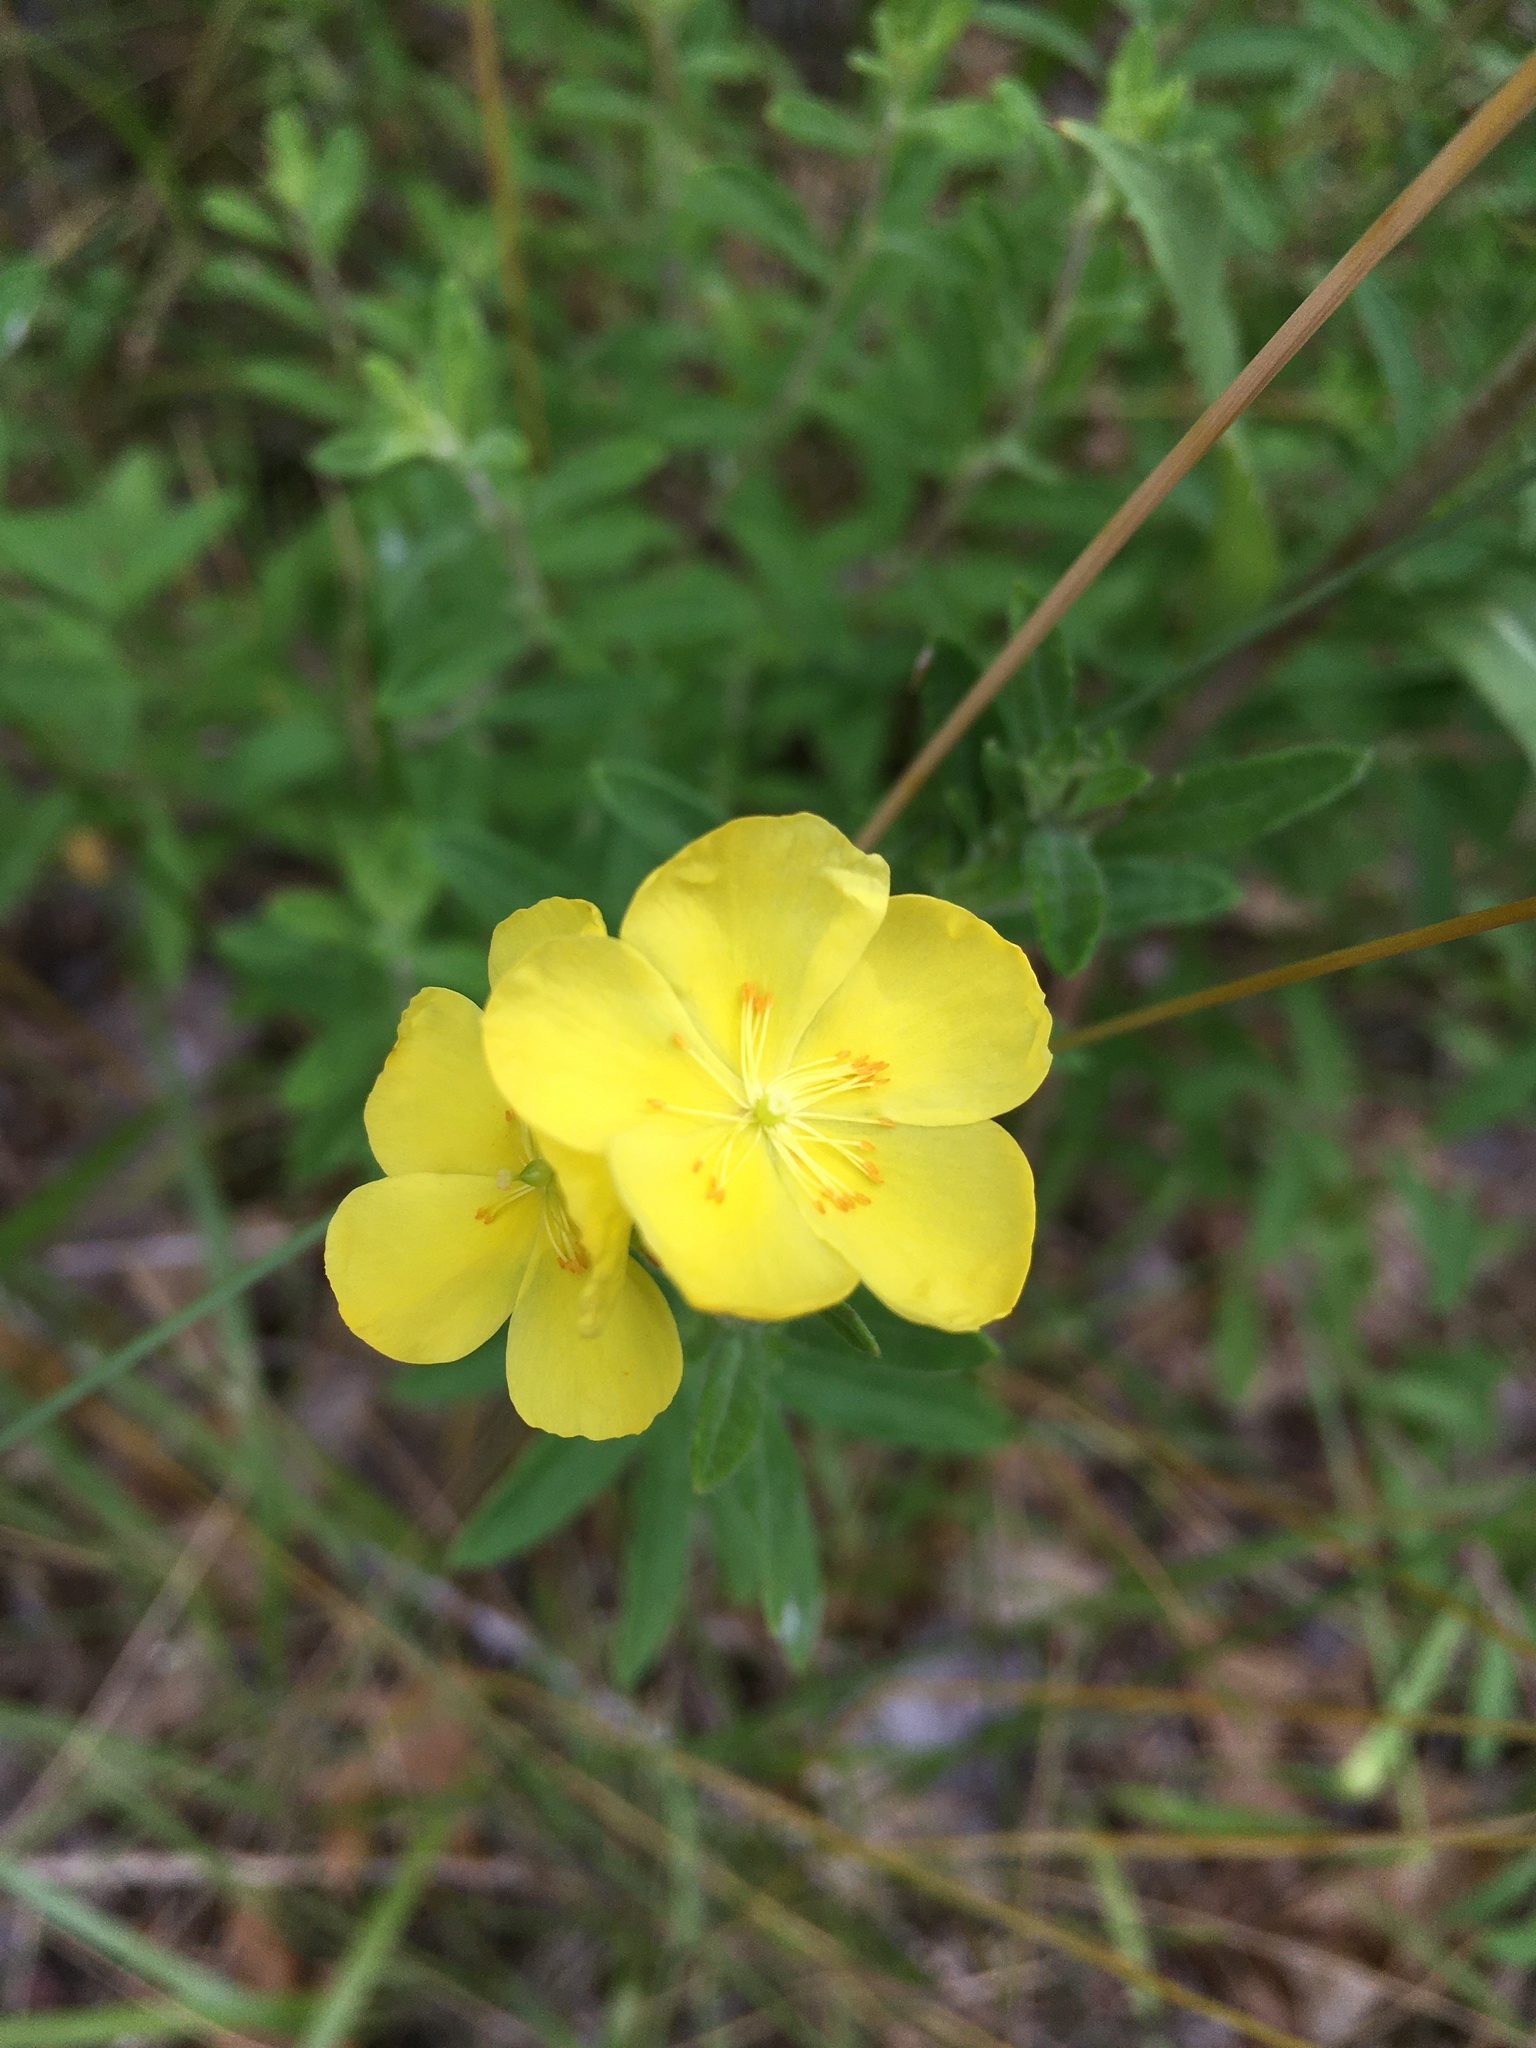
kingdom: Plantae
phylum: Tracheophyta
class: Magnoliopsida
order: Malvales
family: Cistaceae
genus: Crocanthemum
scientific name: Crocanthemum bicknellii
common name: Hoary frostweed
